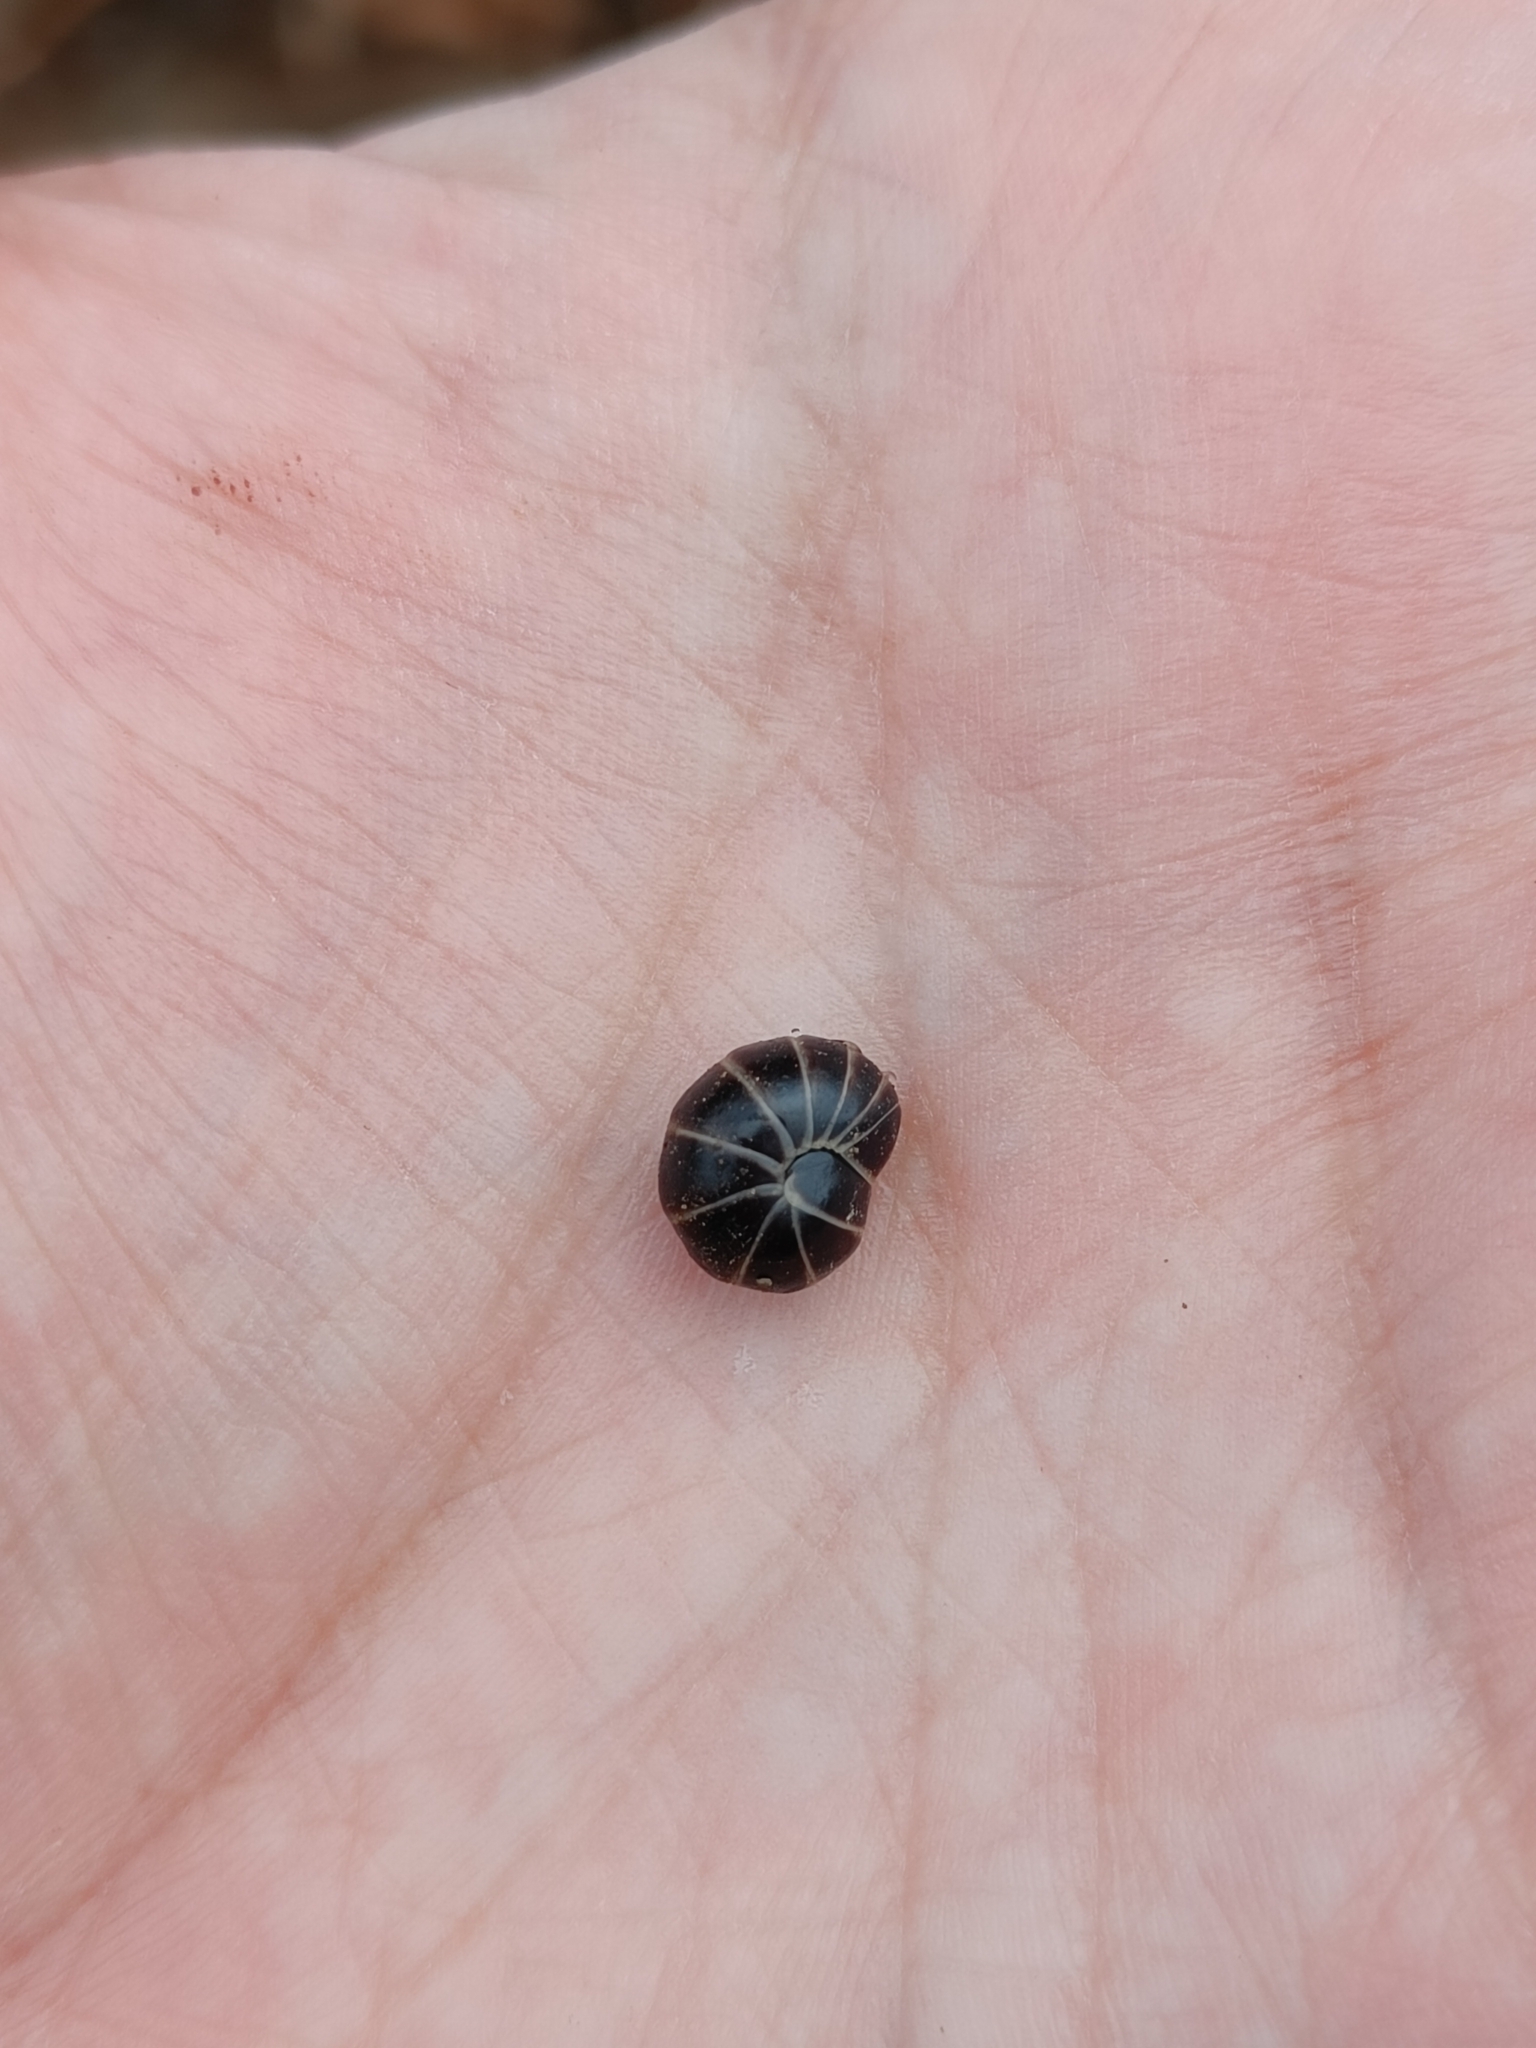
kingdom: Animalia
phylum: Arthropoda
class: Diplopoda
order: Glomerida
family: Glomeridae
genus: Glomeris
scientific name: Glomeris marginata
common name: Bordered pill millipede
